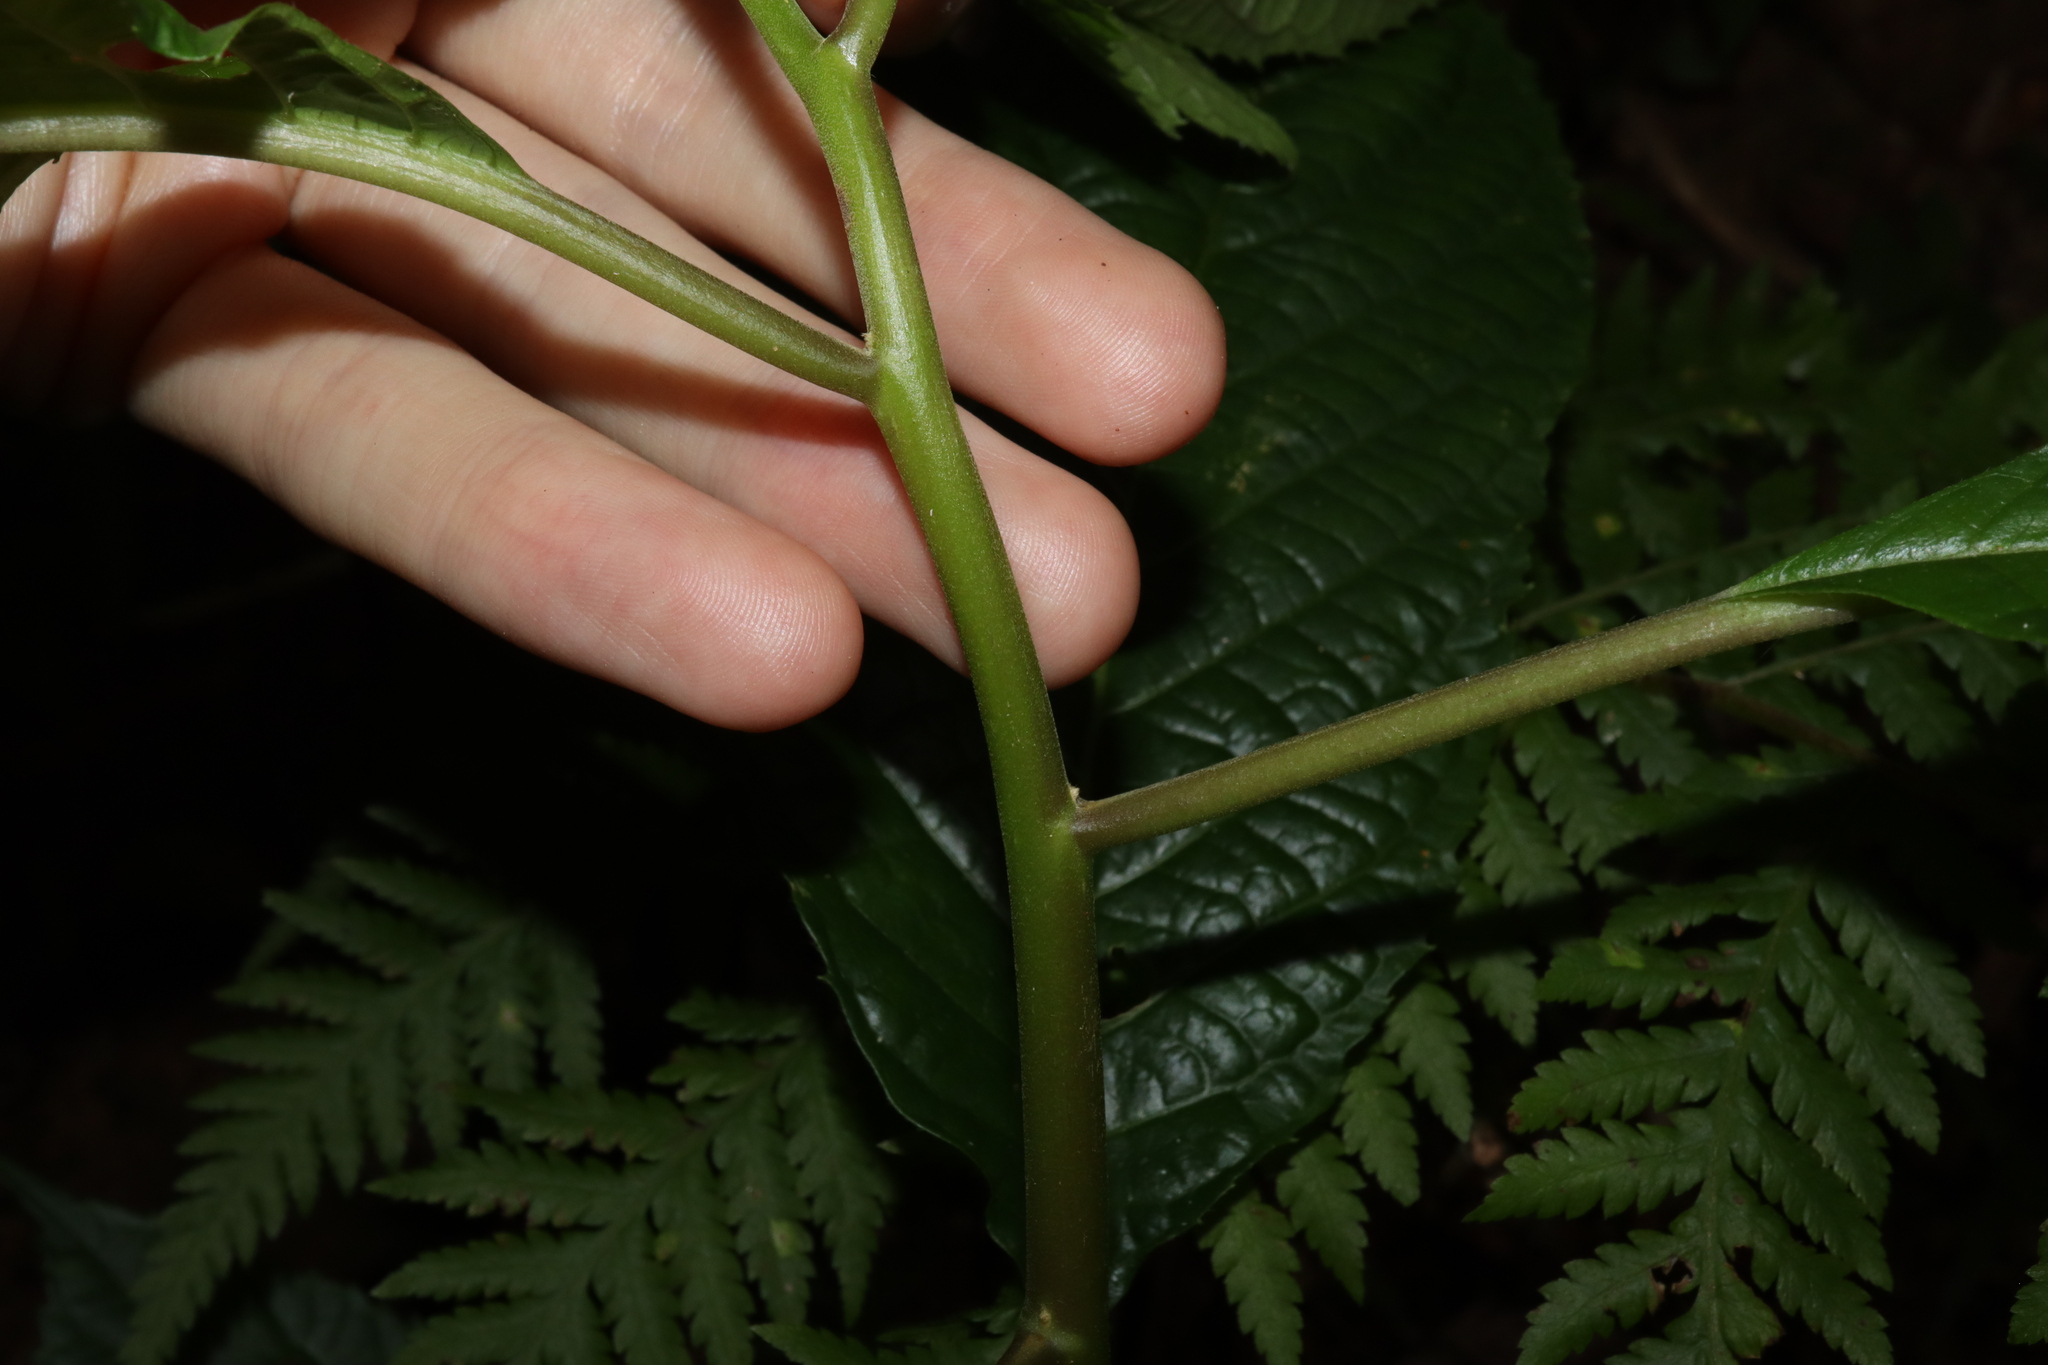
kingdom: Plantae
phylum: Tracheophyta
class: Magnoliopsida
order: Asterales
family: Rousseaceae
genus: Abrophyllum
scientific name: Abrophyllum ornans
